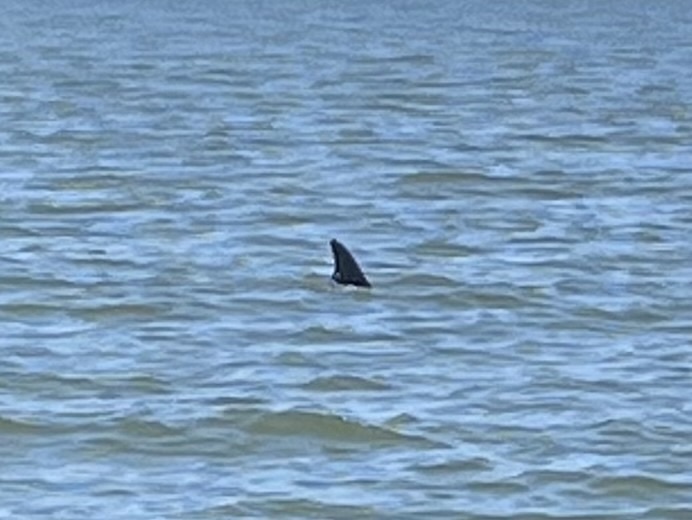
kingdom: Animalia
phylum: Chordata
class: Mammalia
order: Cetacea
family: Delphinidae
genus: Tursiops
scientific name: Tursiops truncatus
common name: Bottlenose dolphin
